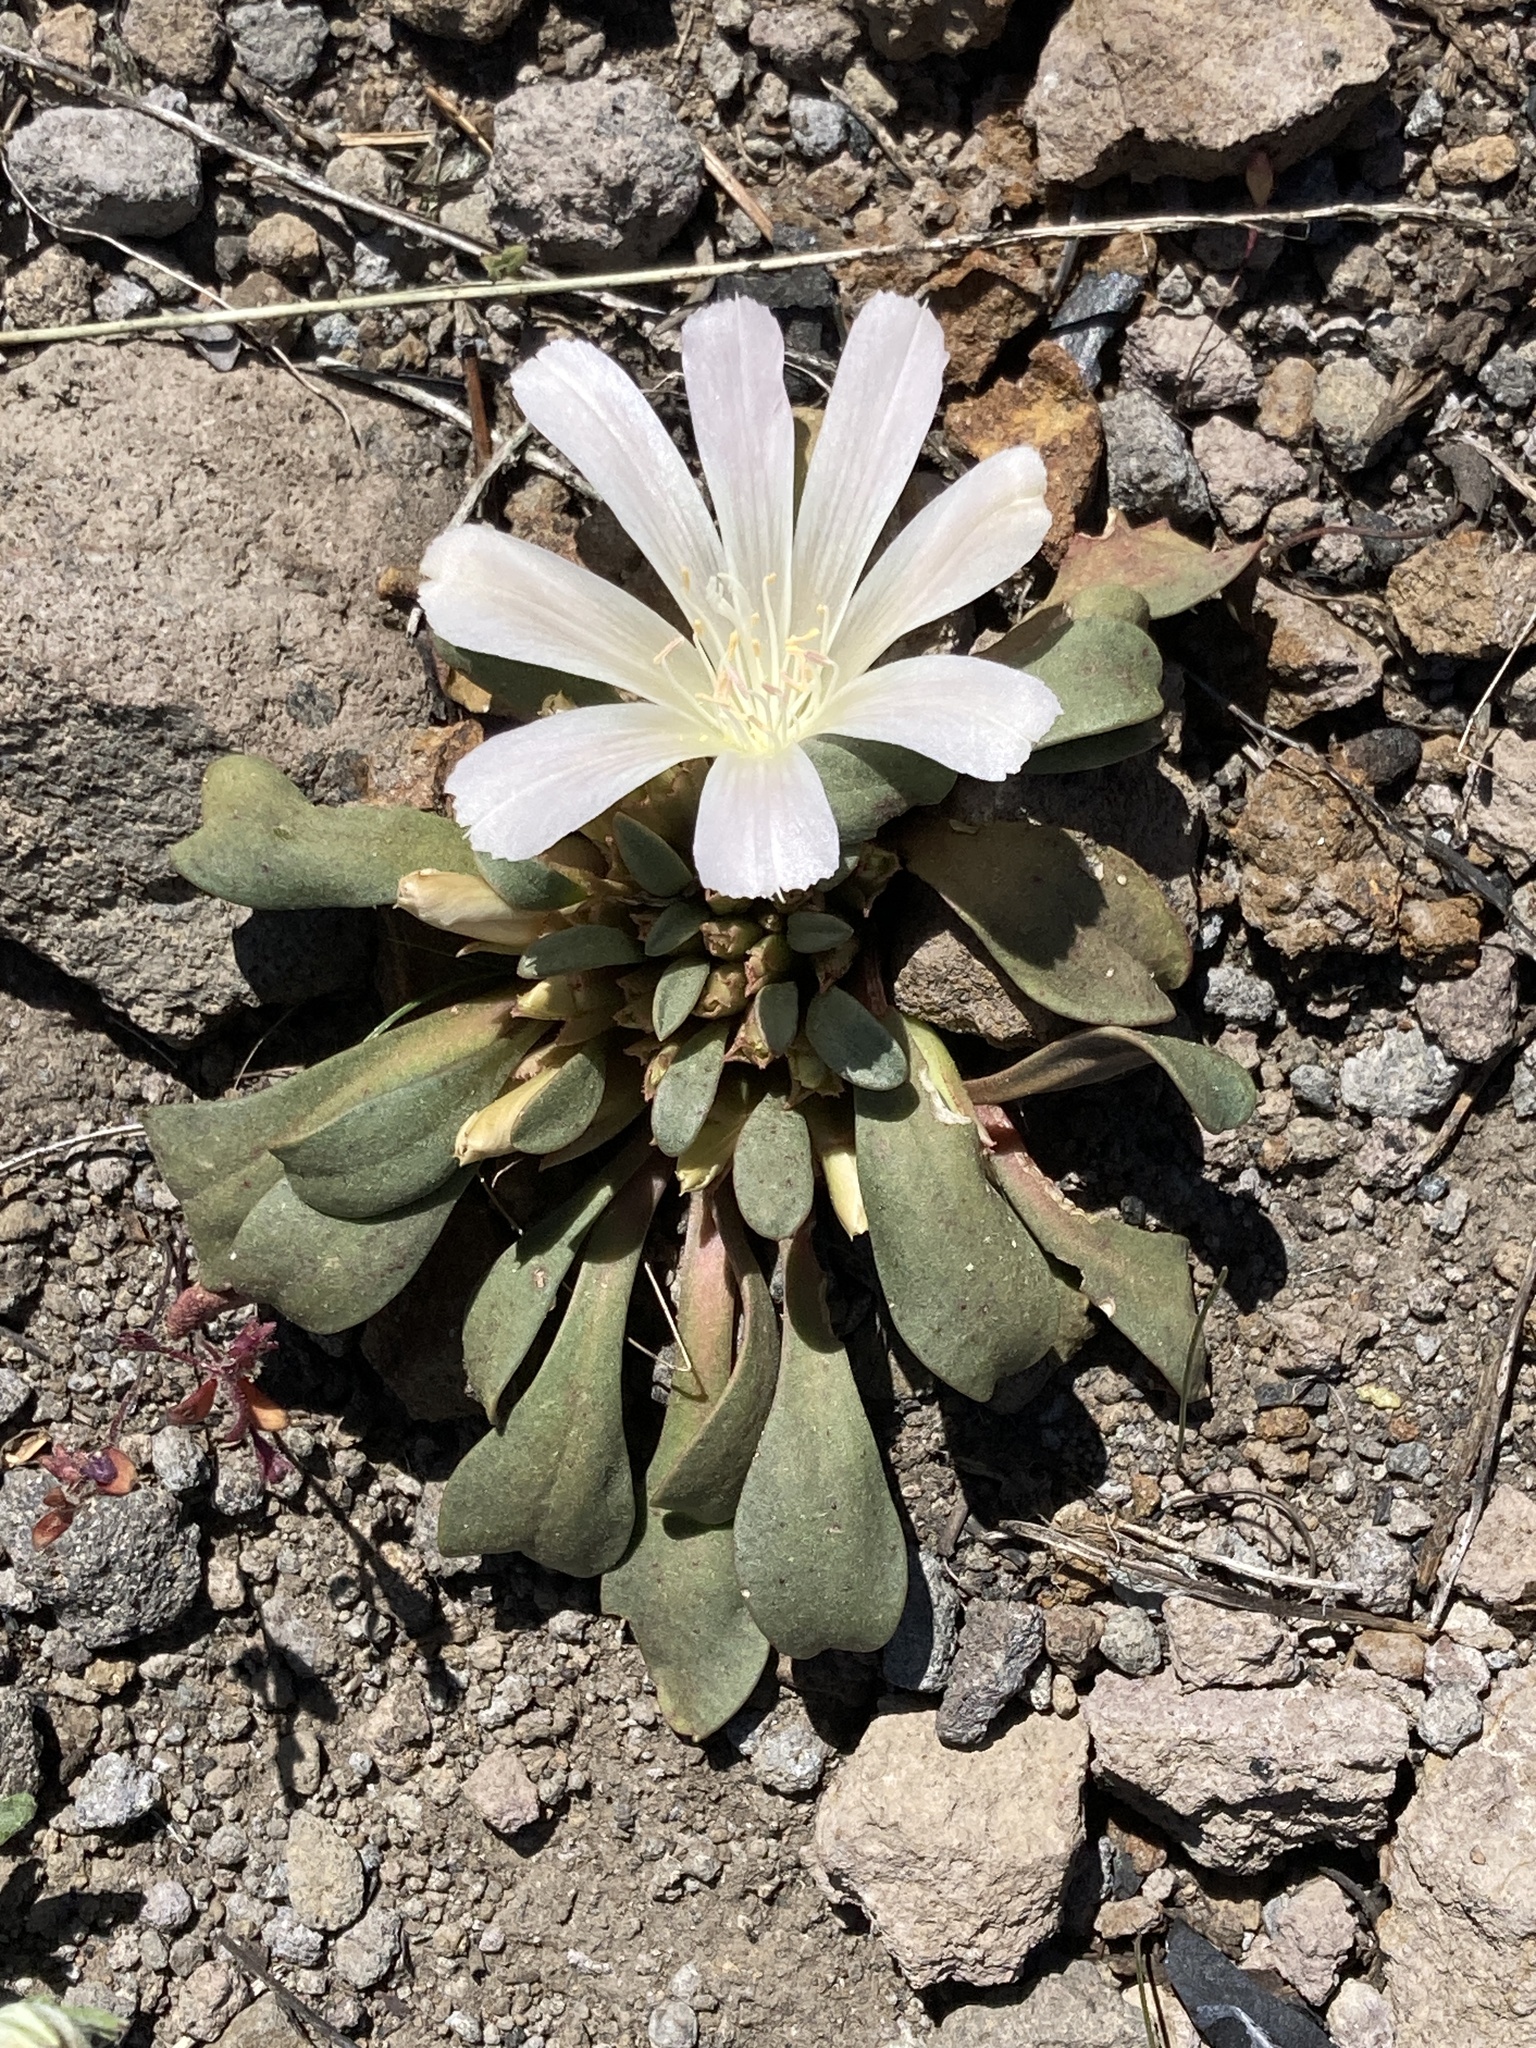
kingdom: Plantae
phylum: Tracheophyta
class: Magnoliopsida
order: Caryophyllales
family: Montiaceae
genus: Lewisia
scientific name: Lewisia kelloggii
